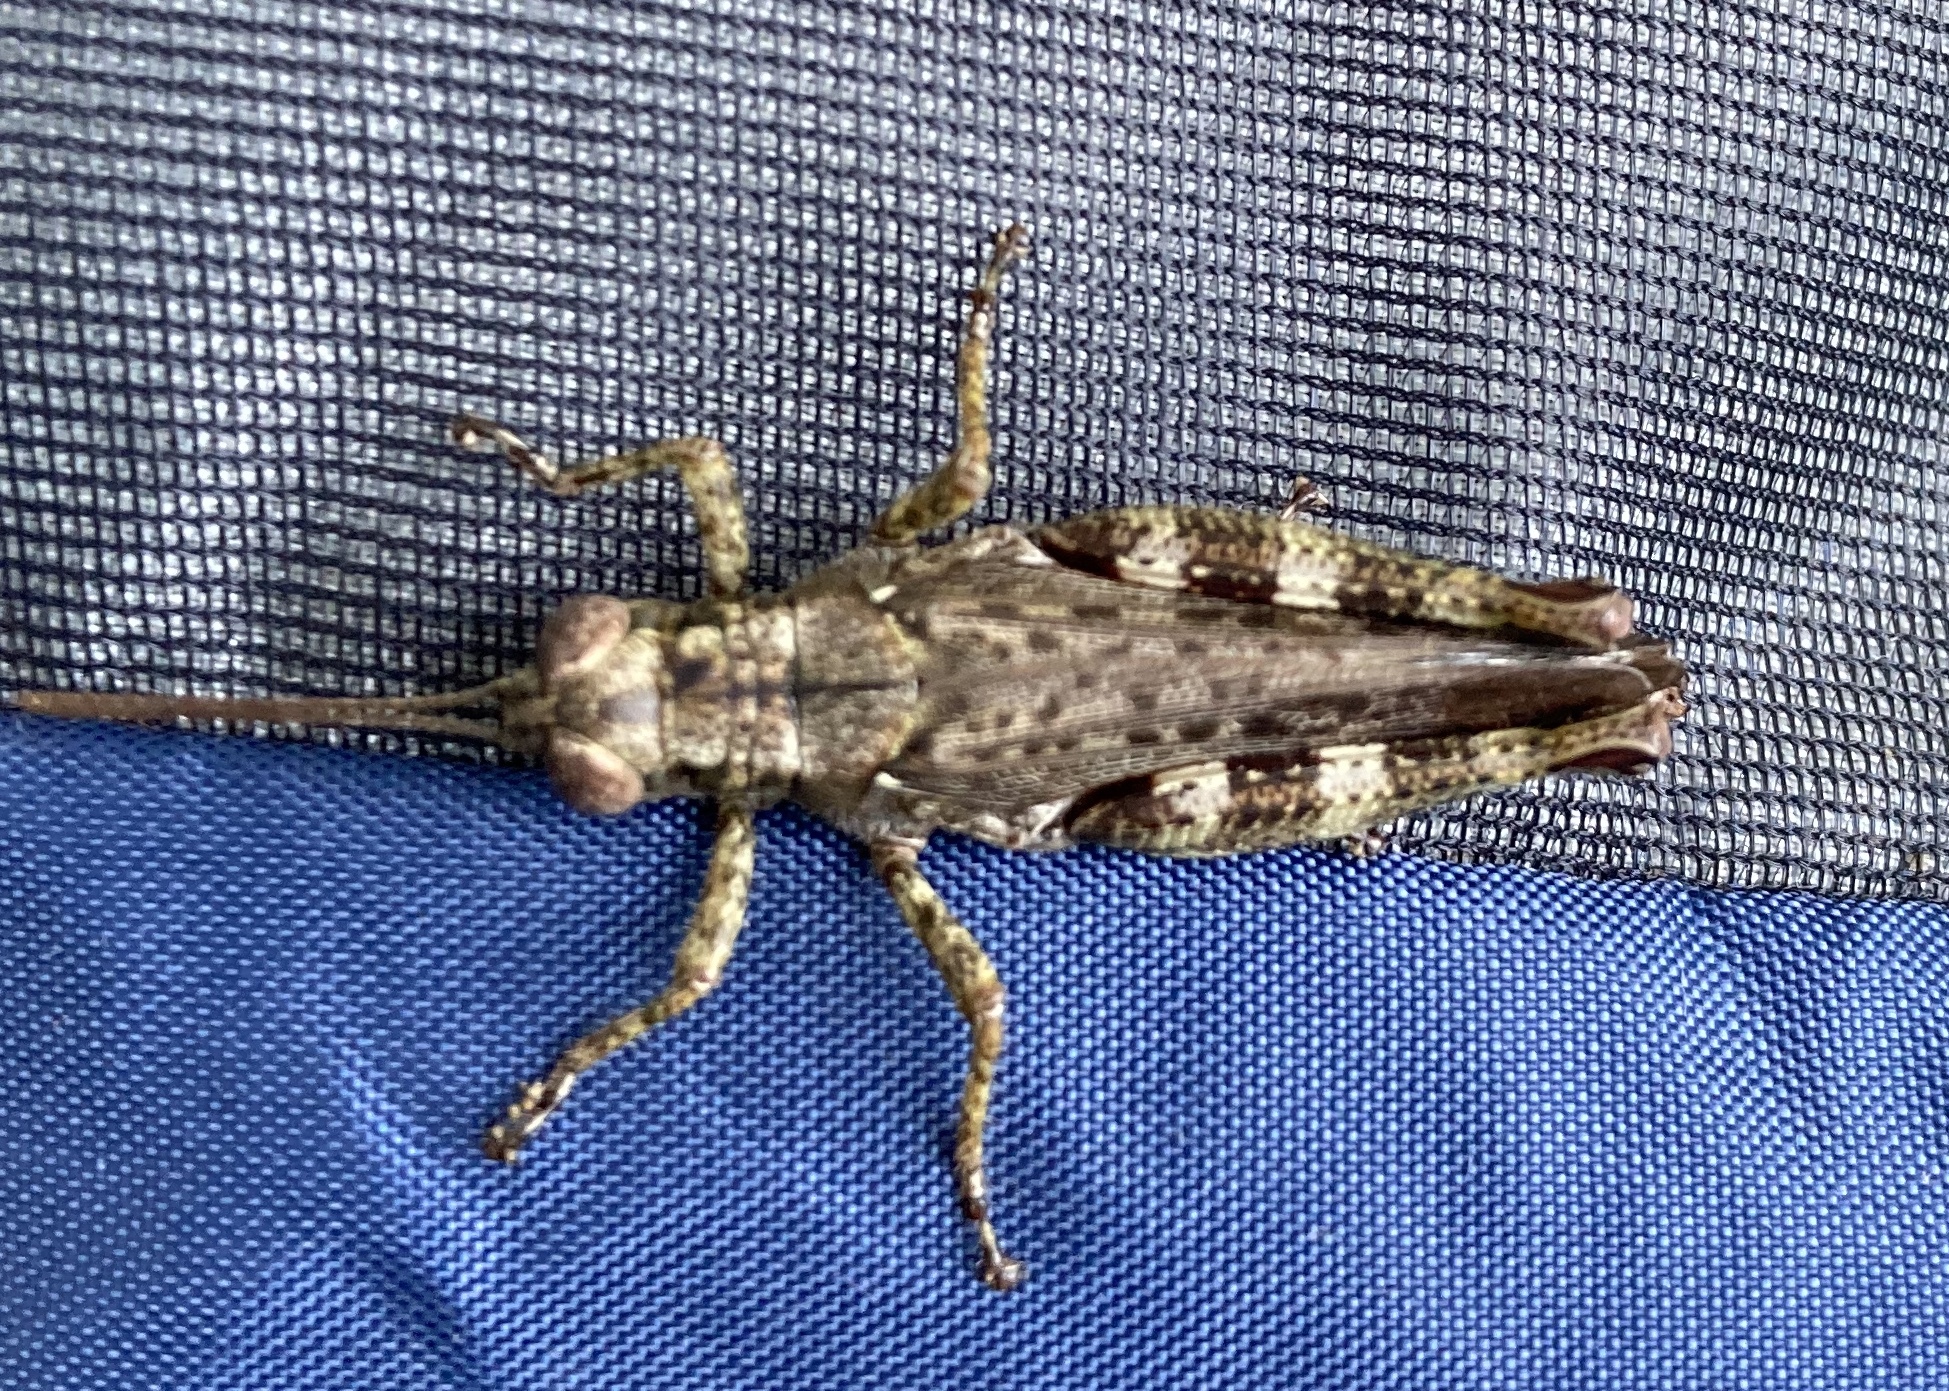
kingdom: Animalia
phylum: Arthropoda
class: Insecta
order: Orthoptera
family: Acrididae
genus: Melanoplus
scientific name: Melanoplus punctulatus
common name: Pine-tree spur-throat grasshopper
